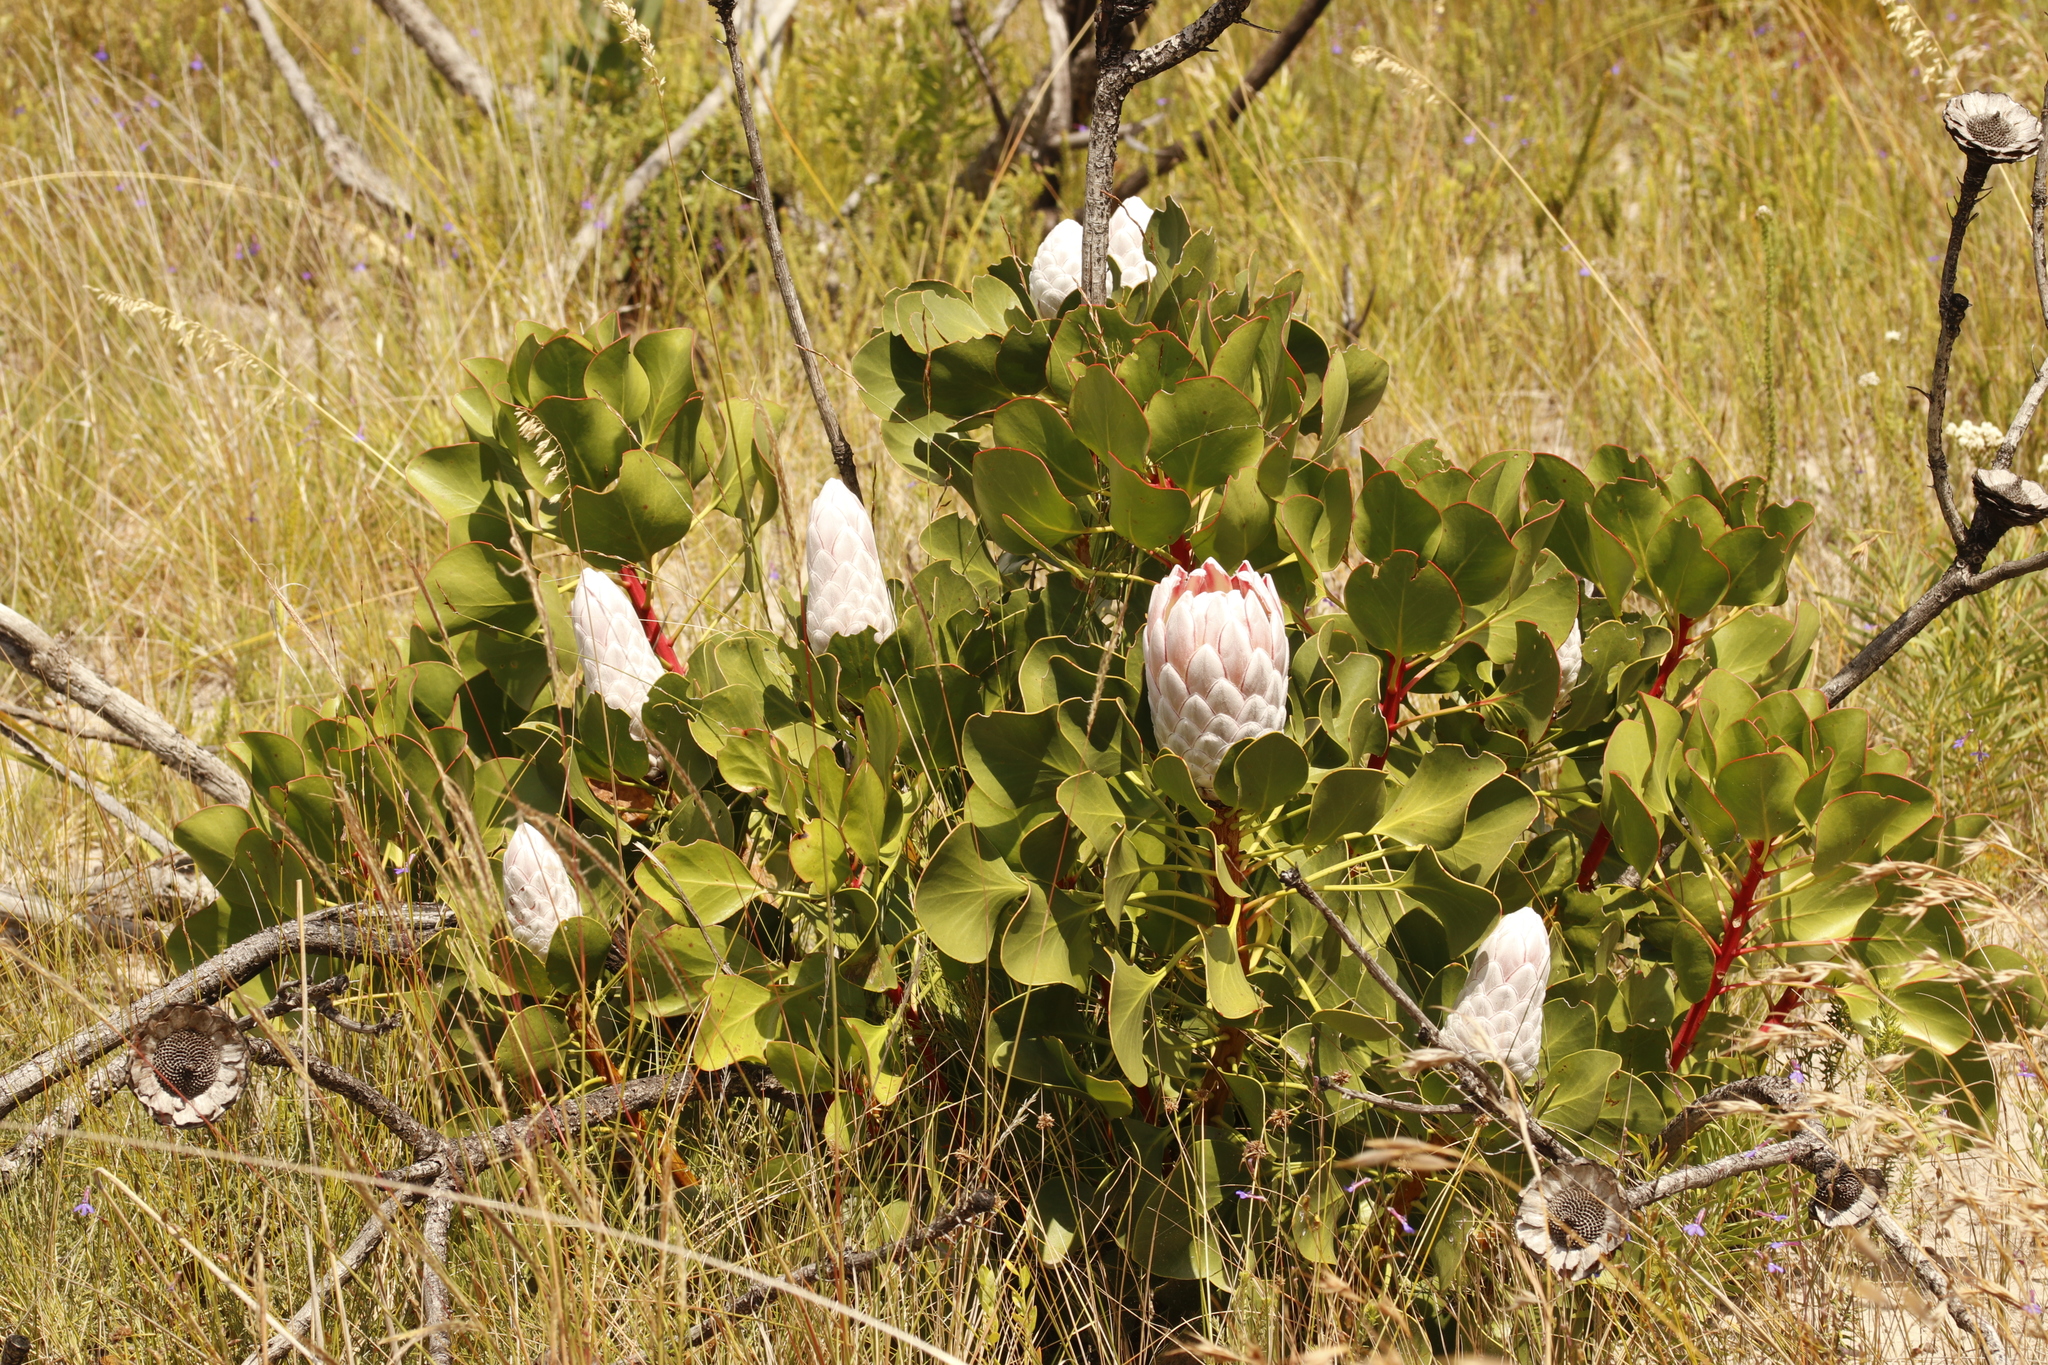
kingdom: Plantae
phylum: Tracheophyta
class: Magnoliopsida
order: Proteales
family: Proteaceae
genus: Protea
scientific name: Protea cynaroides
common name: King protea
